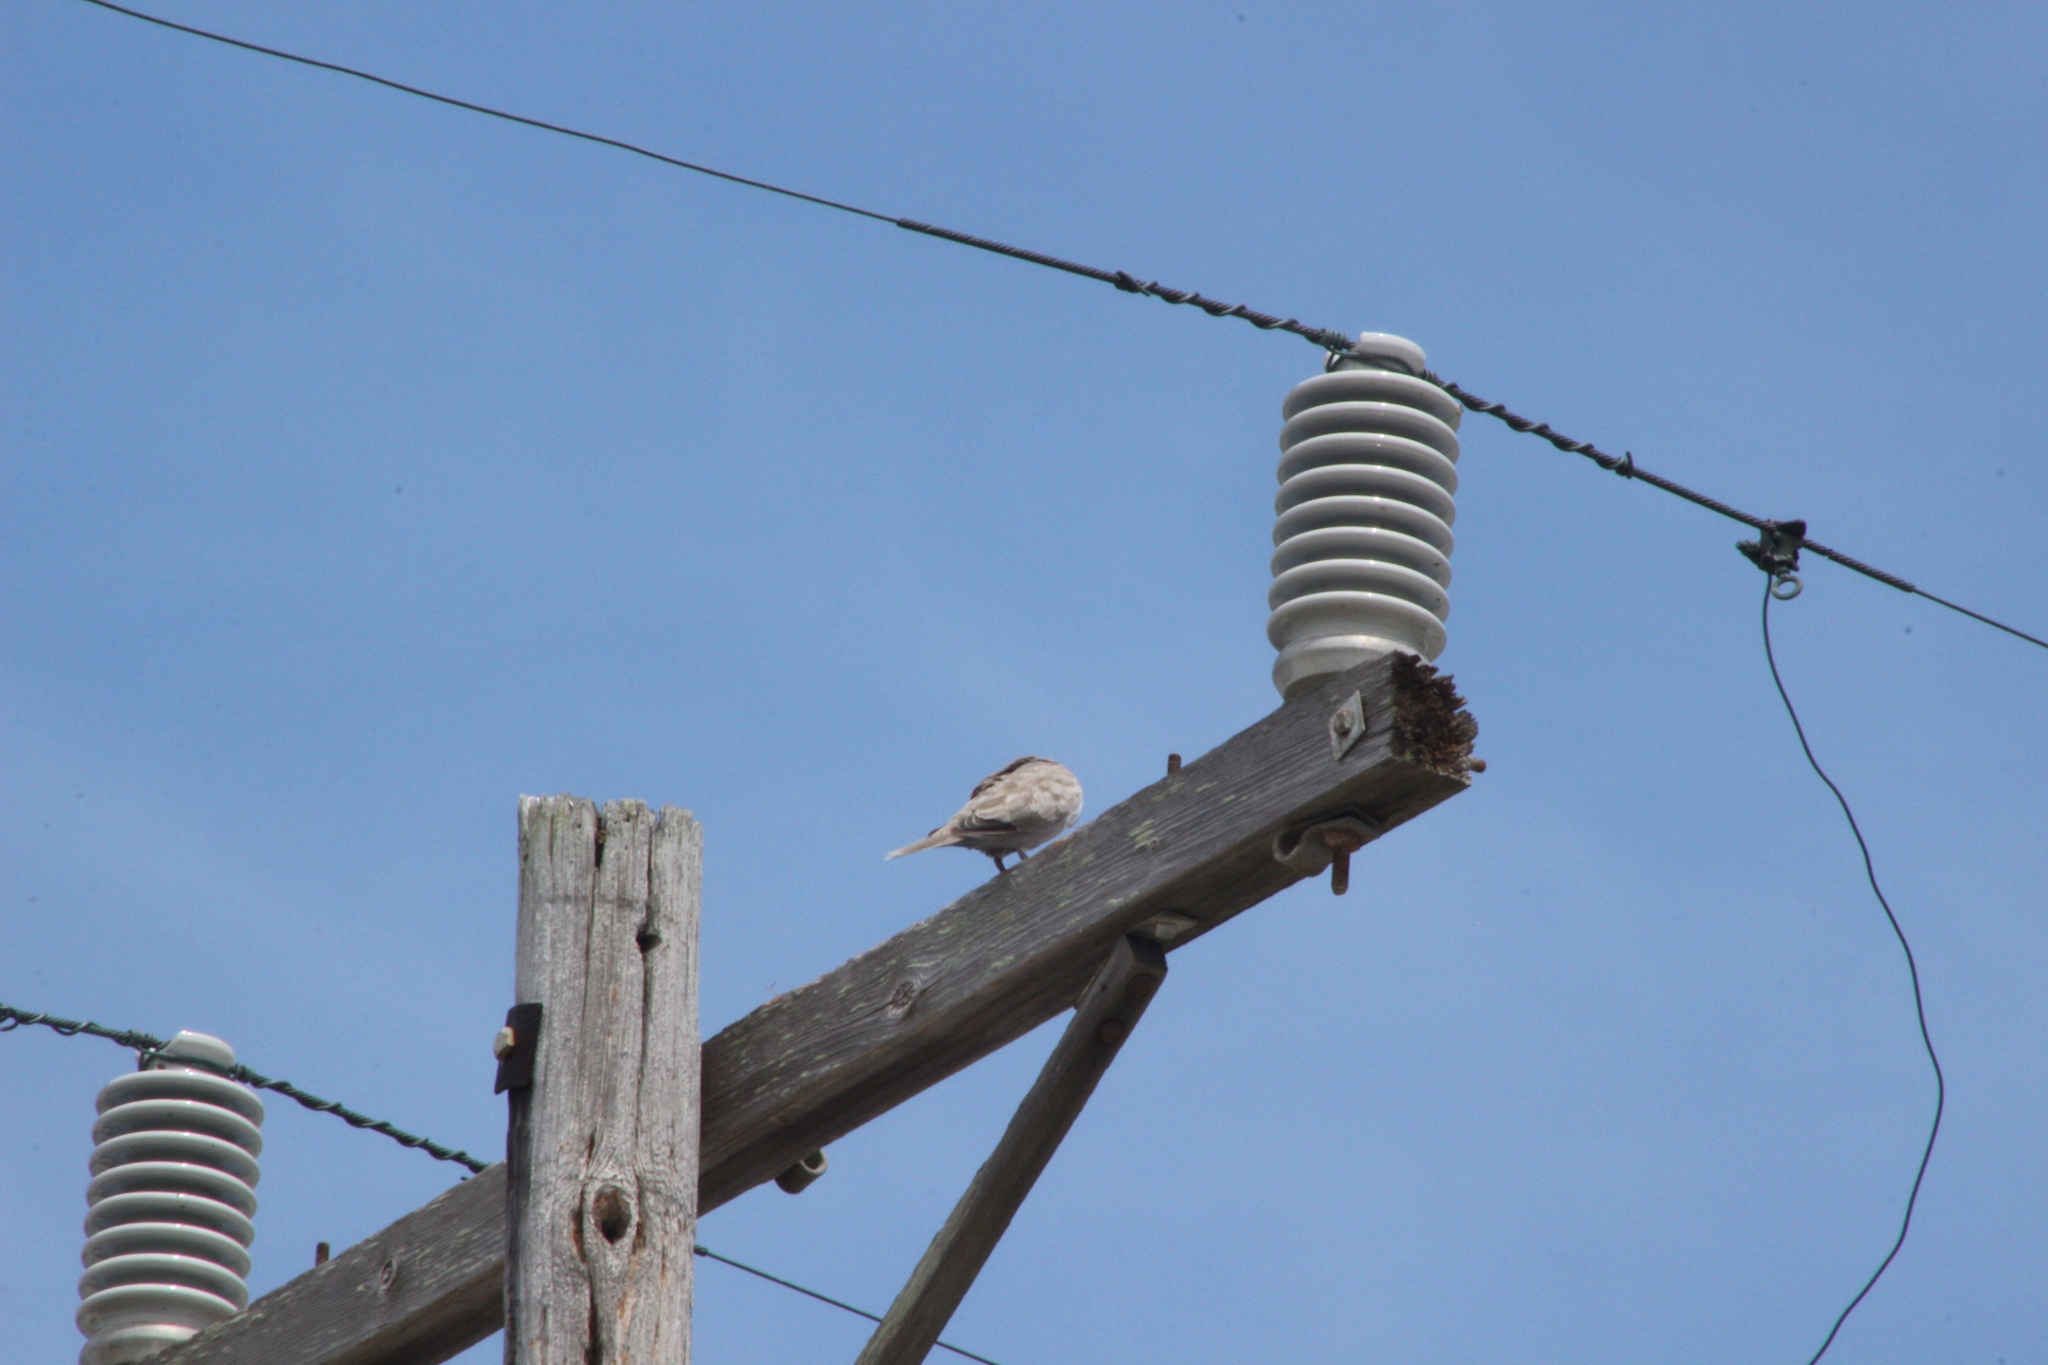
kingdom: Animalia
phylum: Chordata
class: Aves
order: Columbiformes
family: Columbidae
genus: Streptopelia
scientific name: Streptopelia decaocto
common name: Eurasian collared dove
